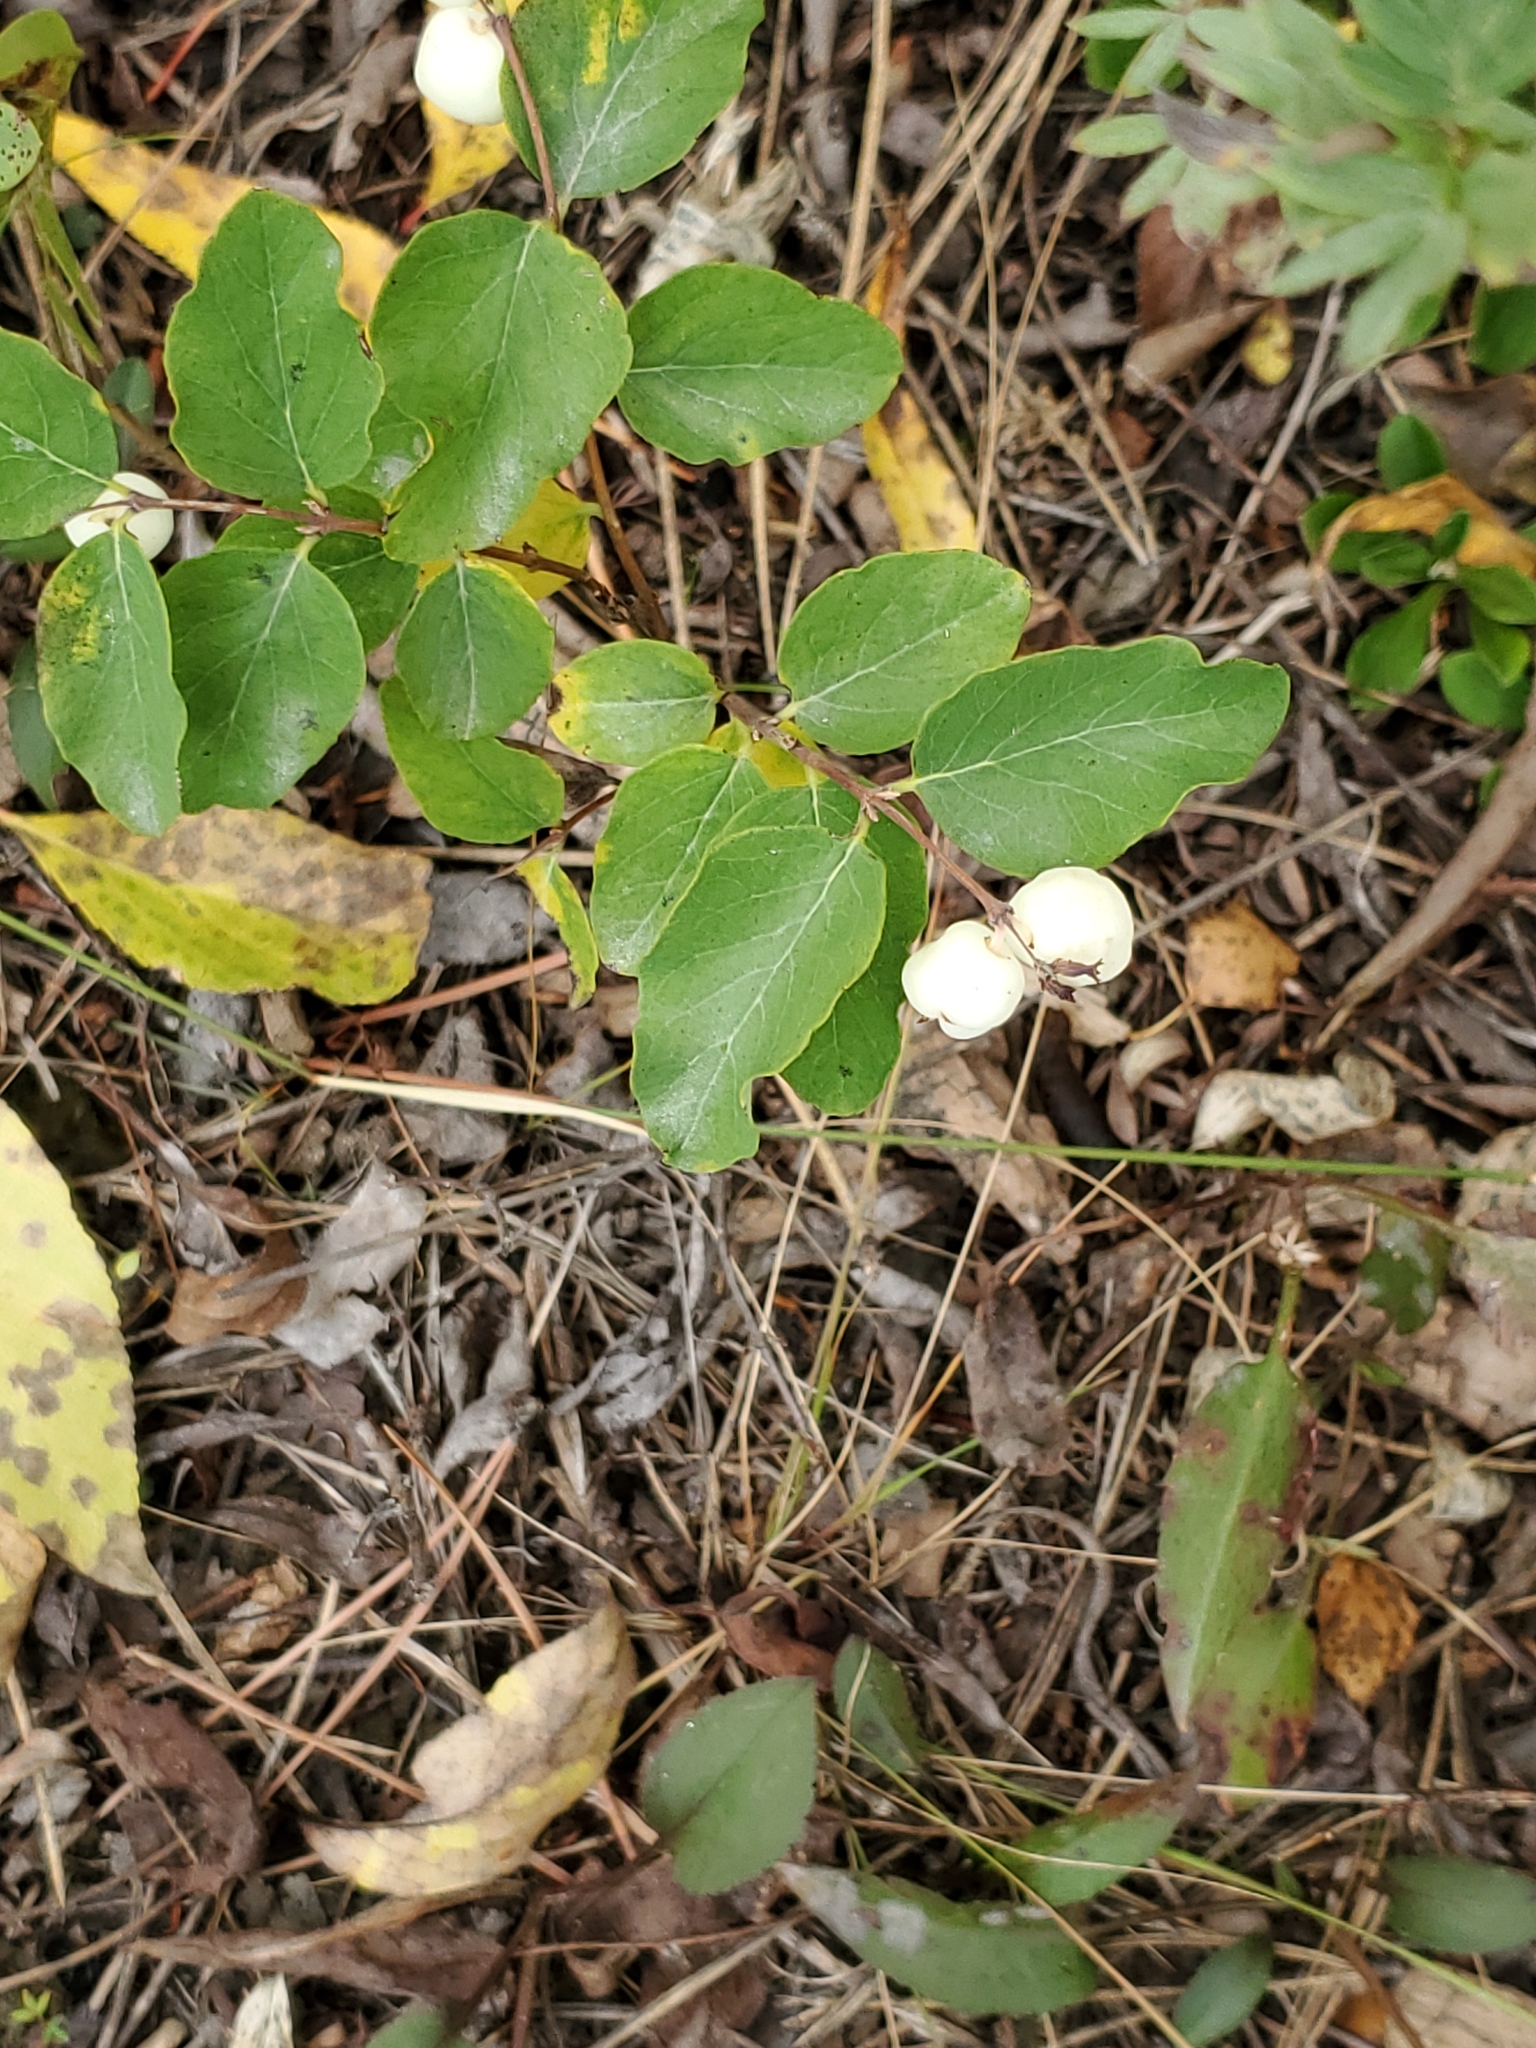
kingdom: Plantae
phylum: Tracheophyta
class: Magnoliopsida
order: Dipsacales
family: Caprifoliaceae
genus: Symphoricarpos
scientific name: Symphoricarpos albus
